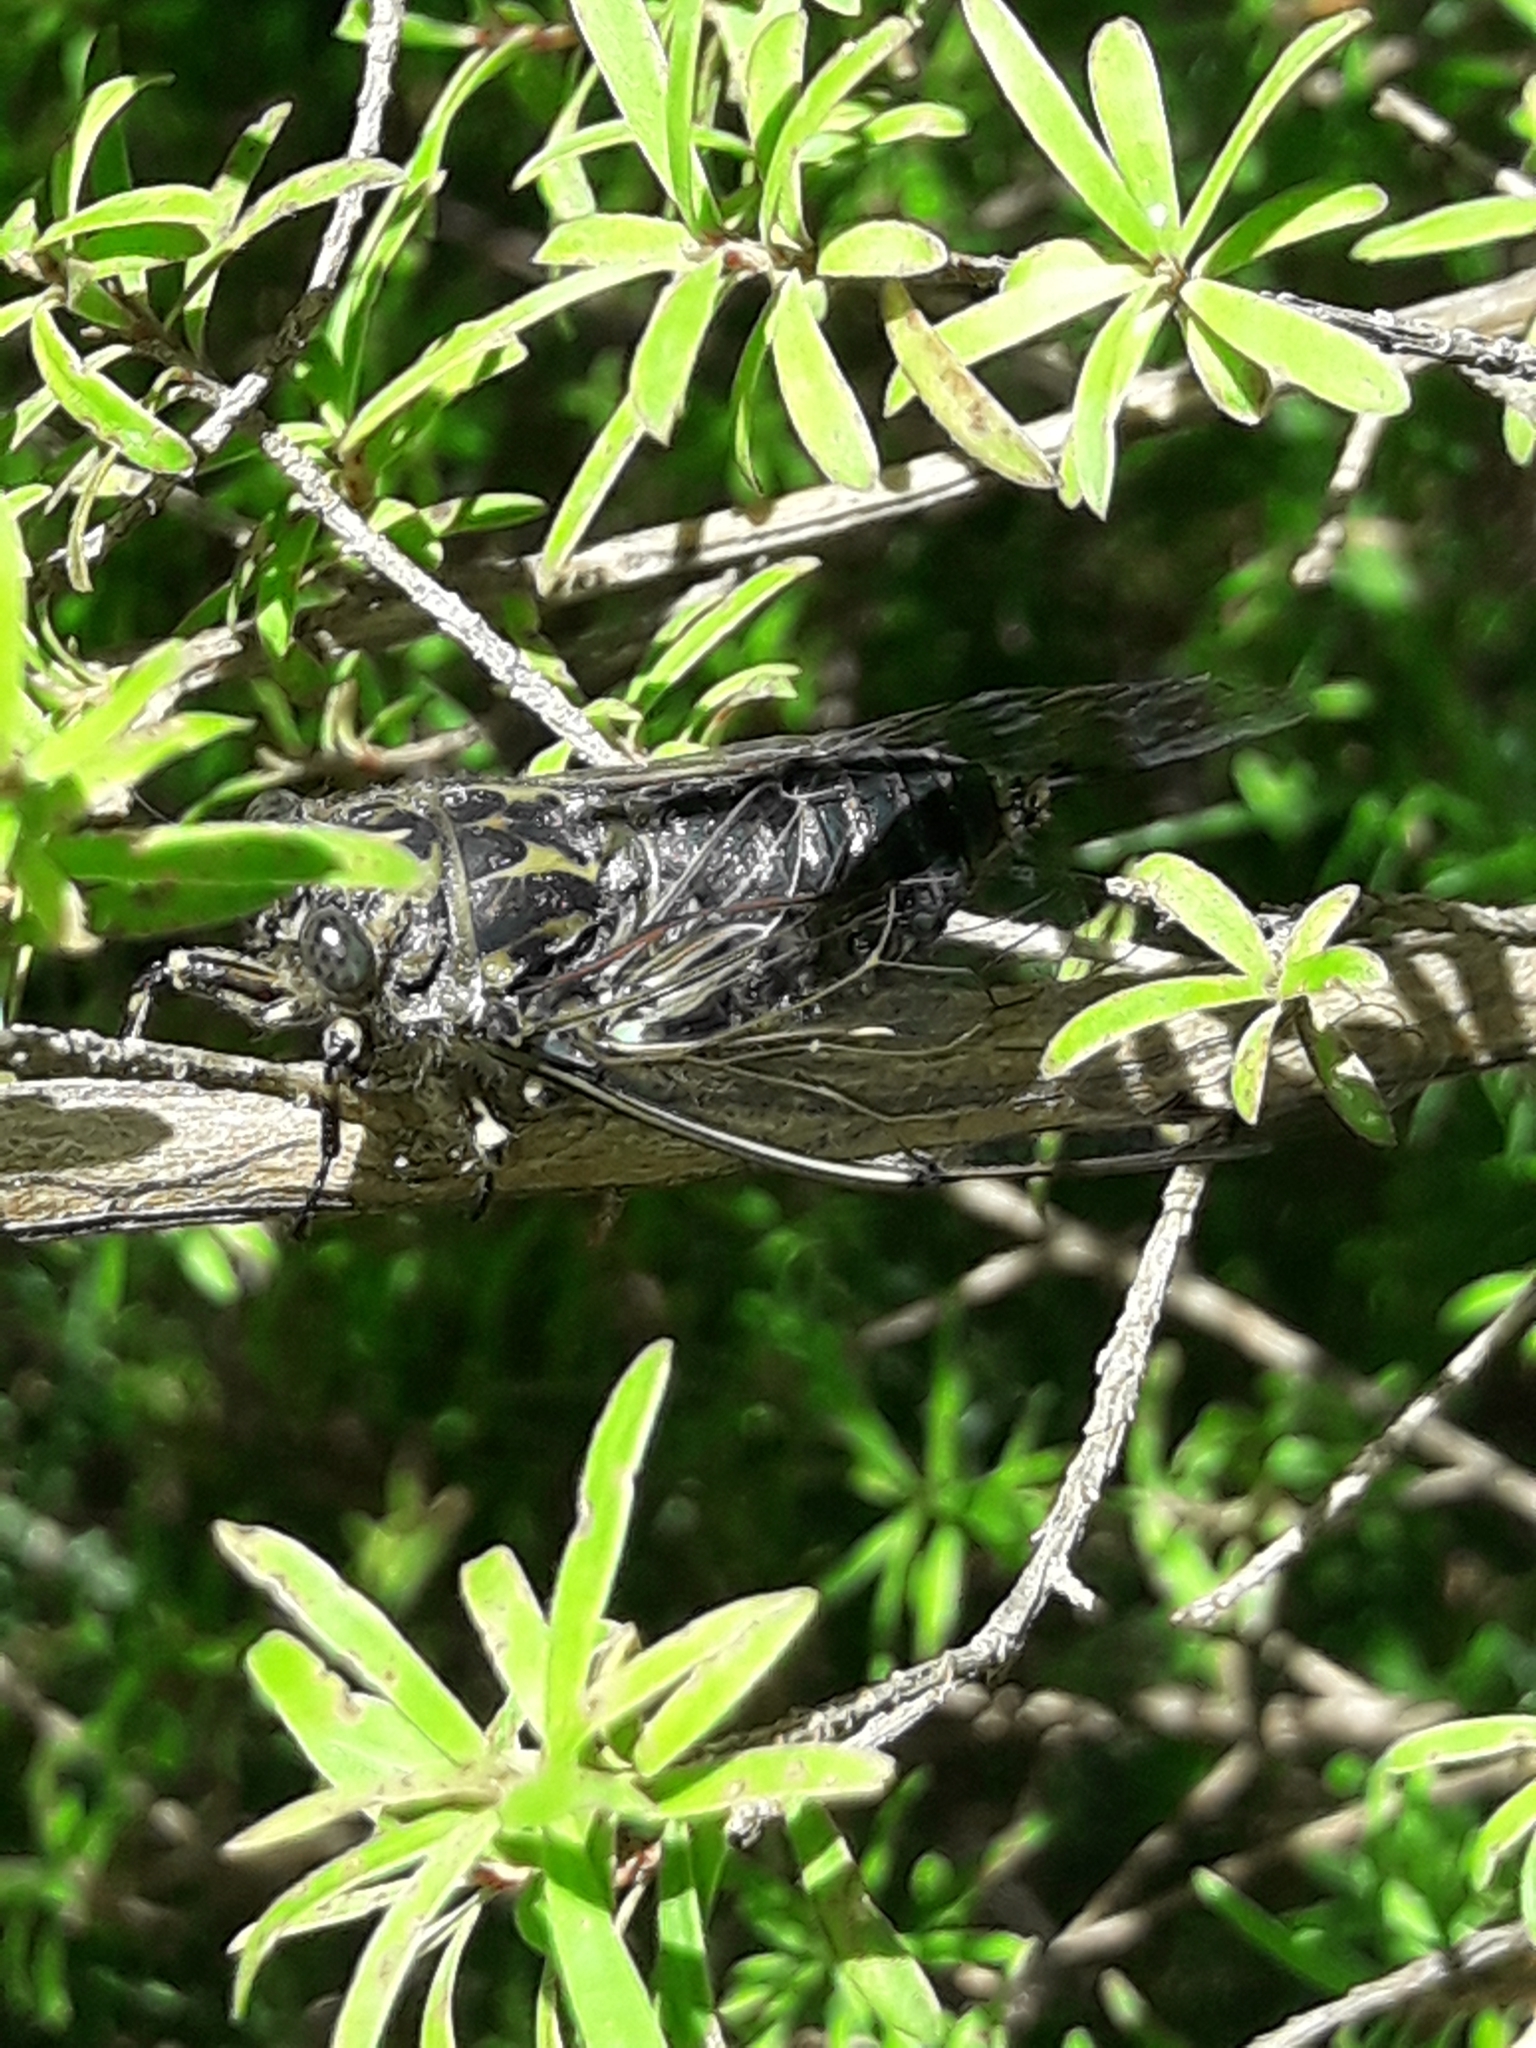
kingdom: Animalia
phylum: Arthropoda
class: Insecta
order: Hemiptera
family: Cicadidae
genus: Amphipsalta
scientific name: Amphipsalta strepitans
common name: Chirping cicada
